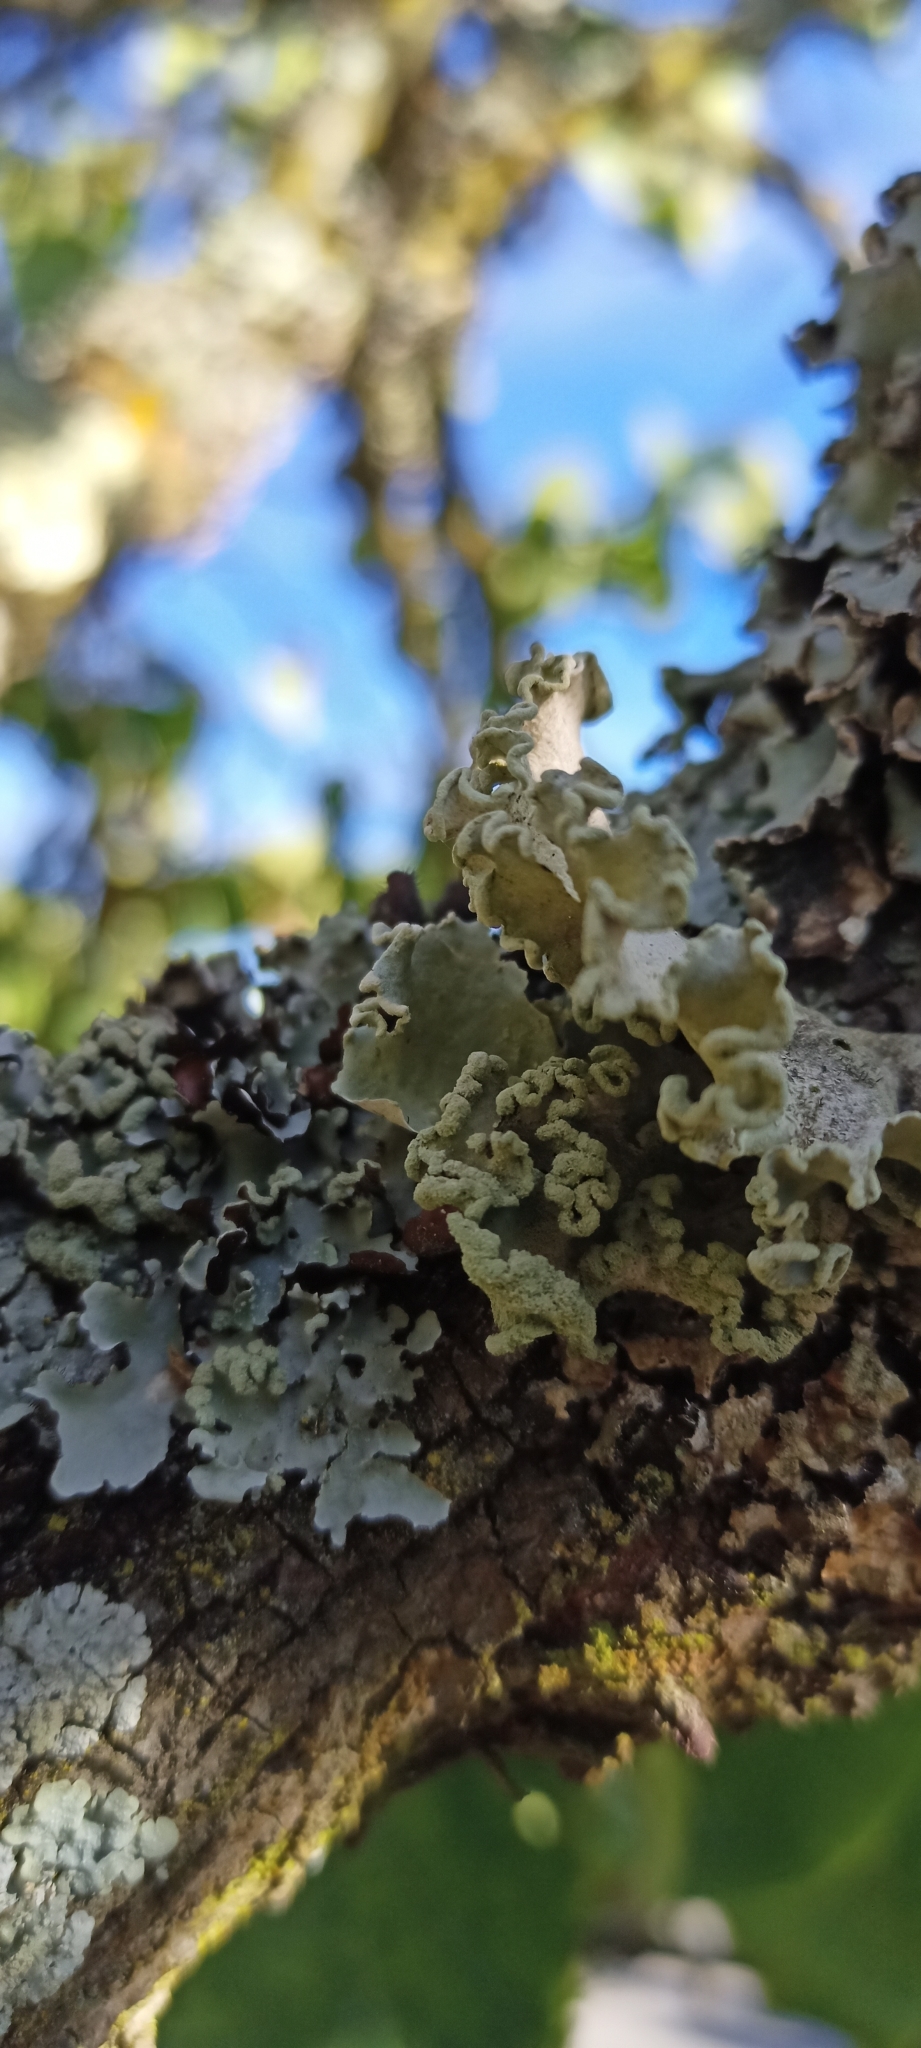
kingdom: Fungi
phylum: Ascomycota
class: Lecanoromycetes
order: Lecanorales
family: Parmeliaceae
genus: Parmotrema
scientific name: Parmotrema hypoleucinum
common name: Lacy powdered-ruffle
